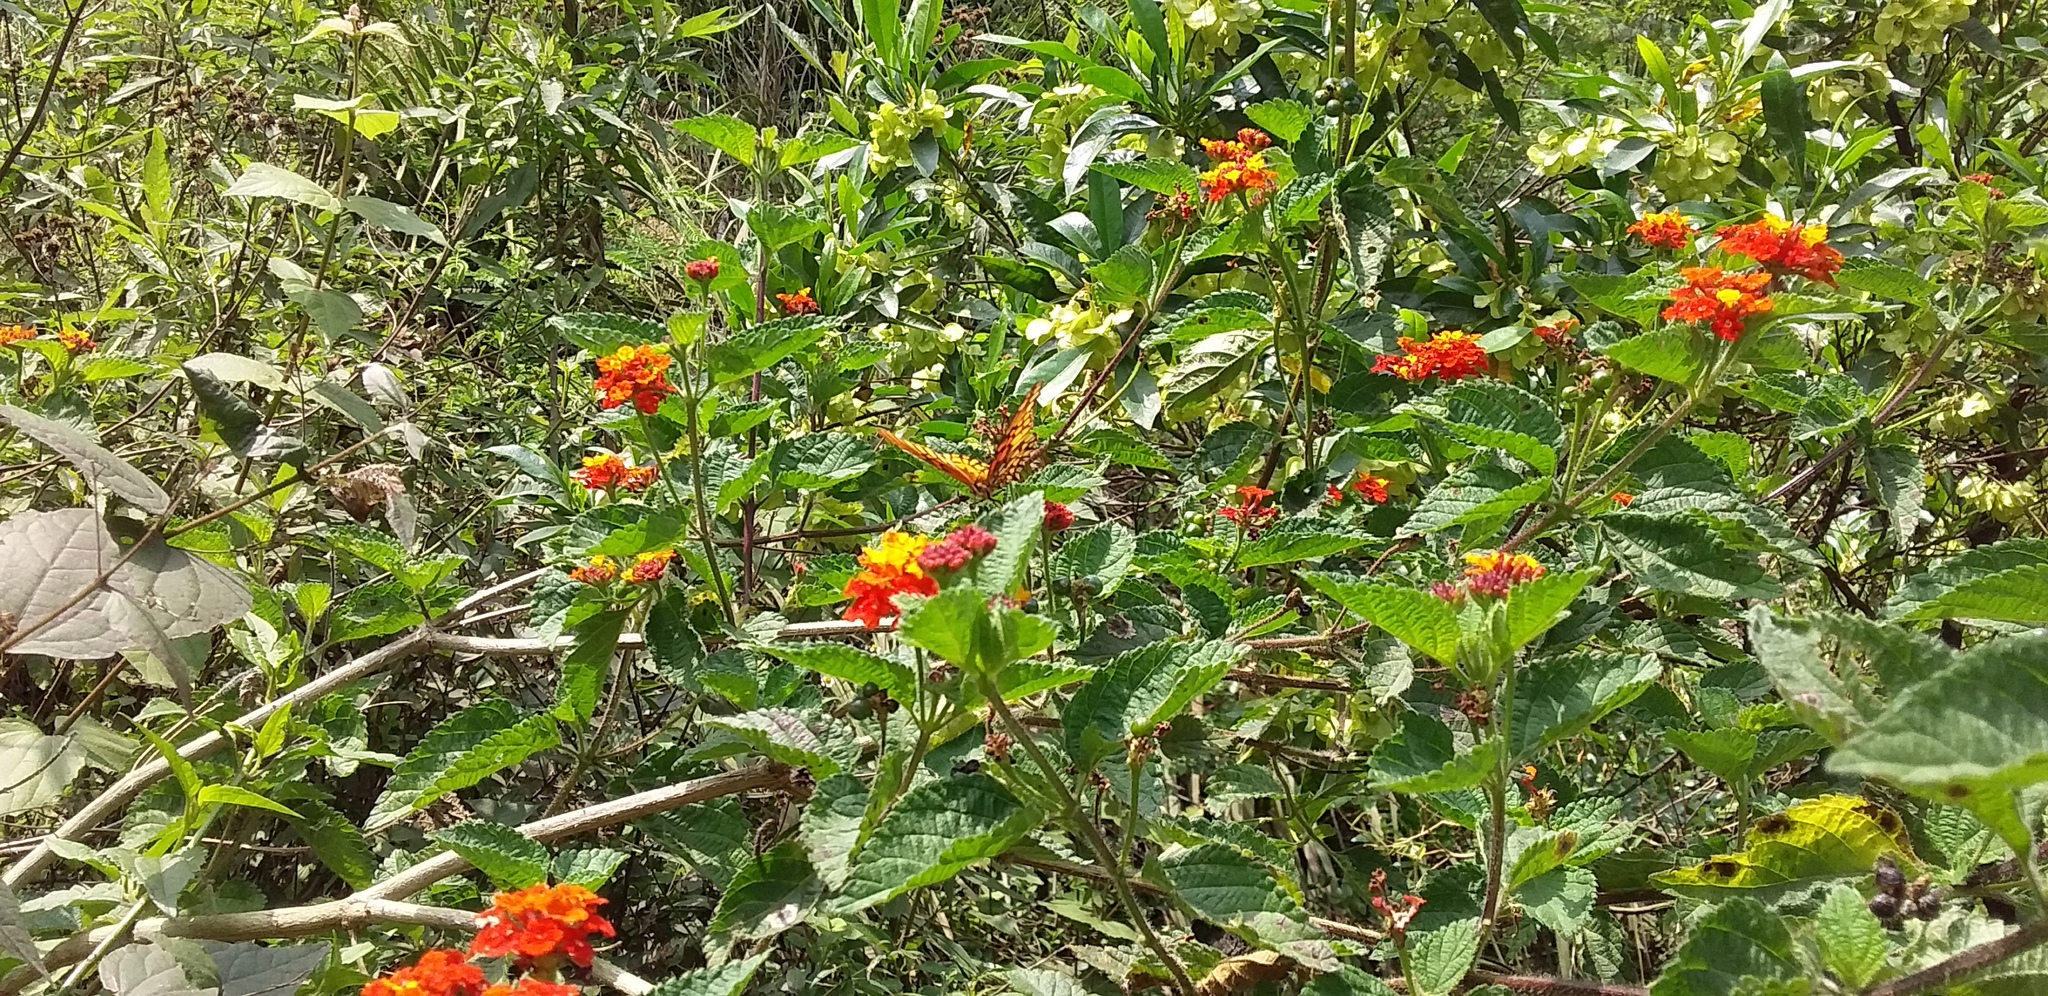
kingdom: Animalia
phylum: Arthropoda
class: Insecta
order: Lepidoptera
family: Nymphalidae
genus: Dione
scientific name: Dione moneta
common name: Mexican silverspot
